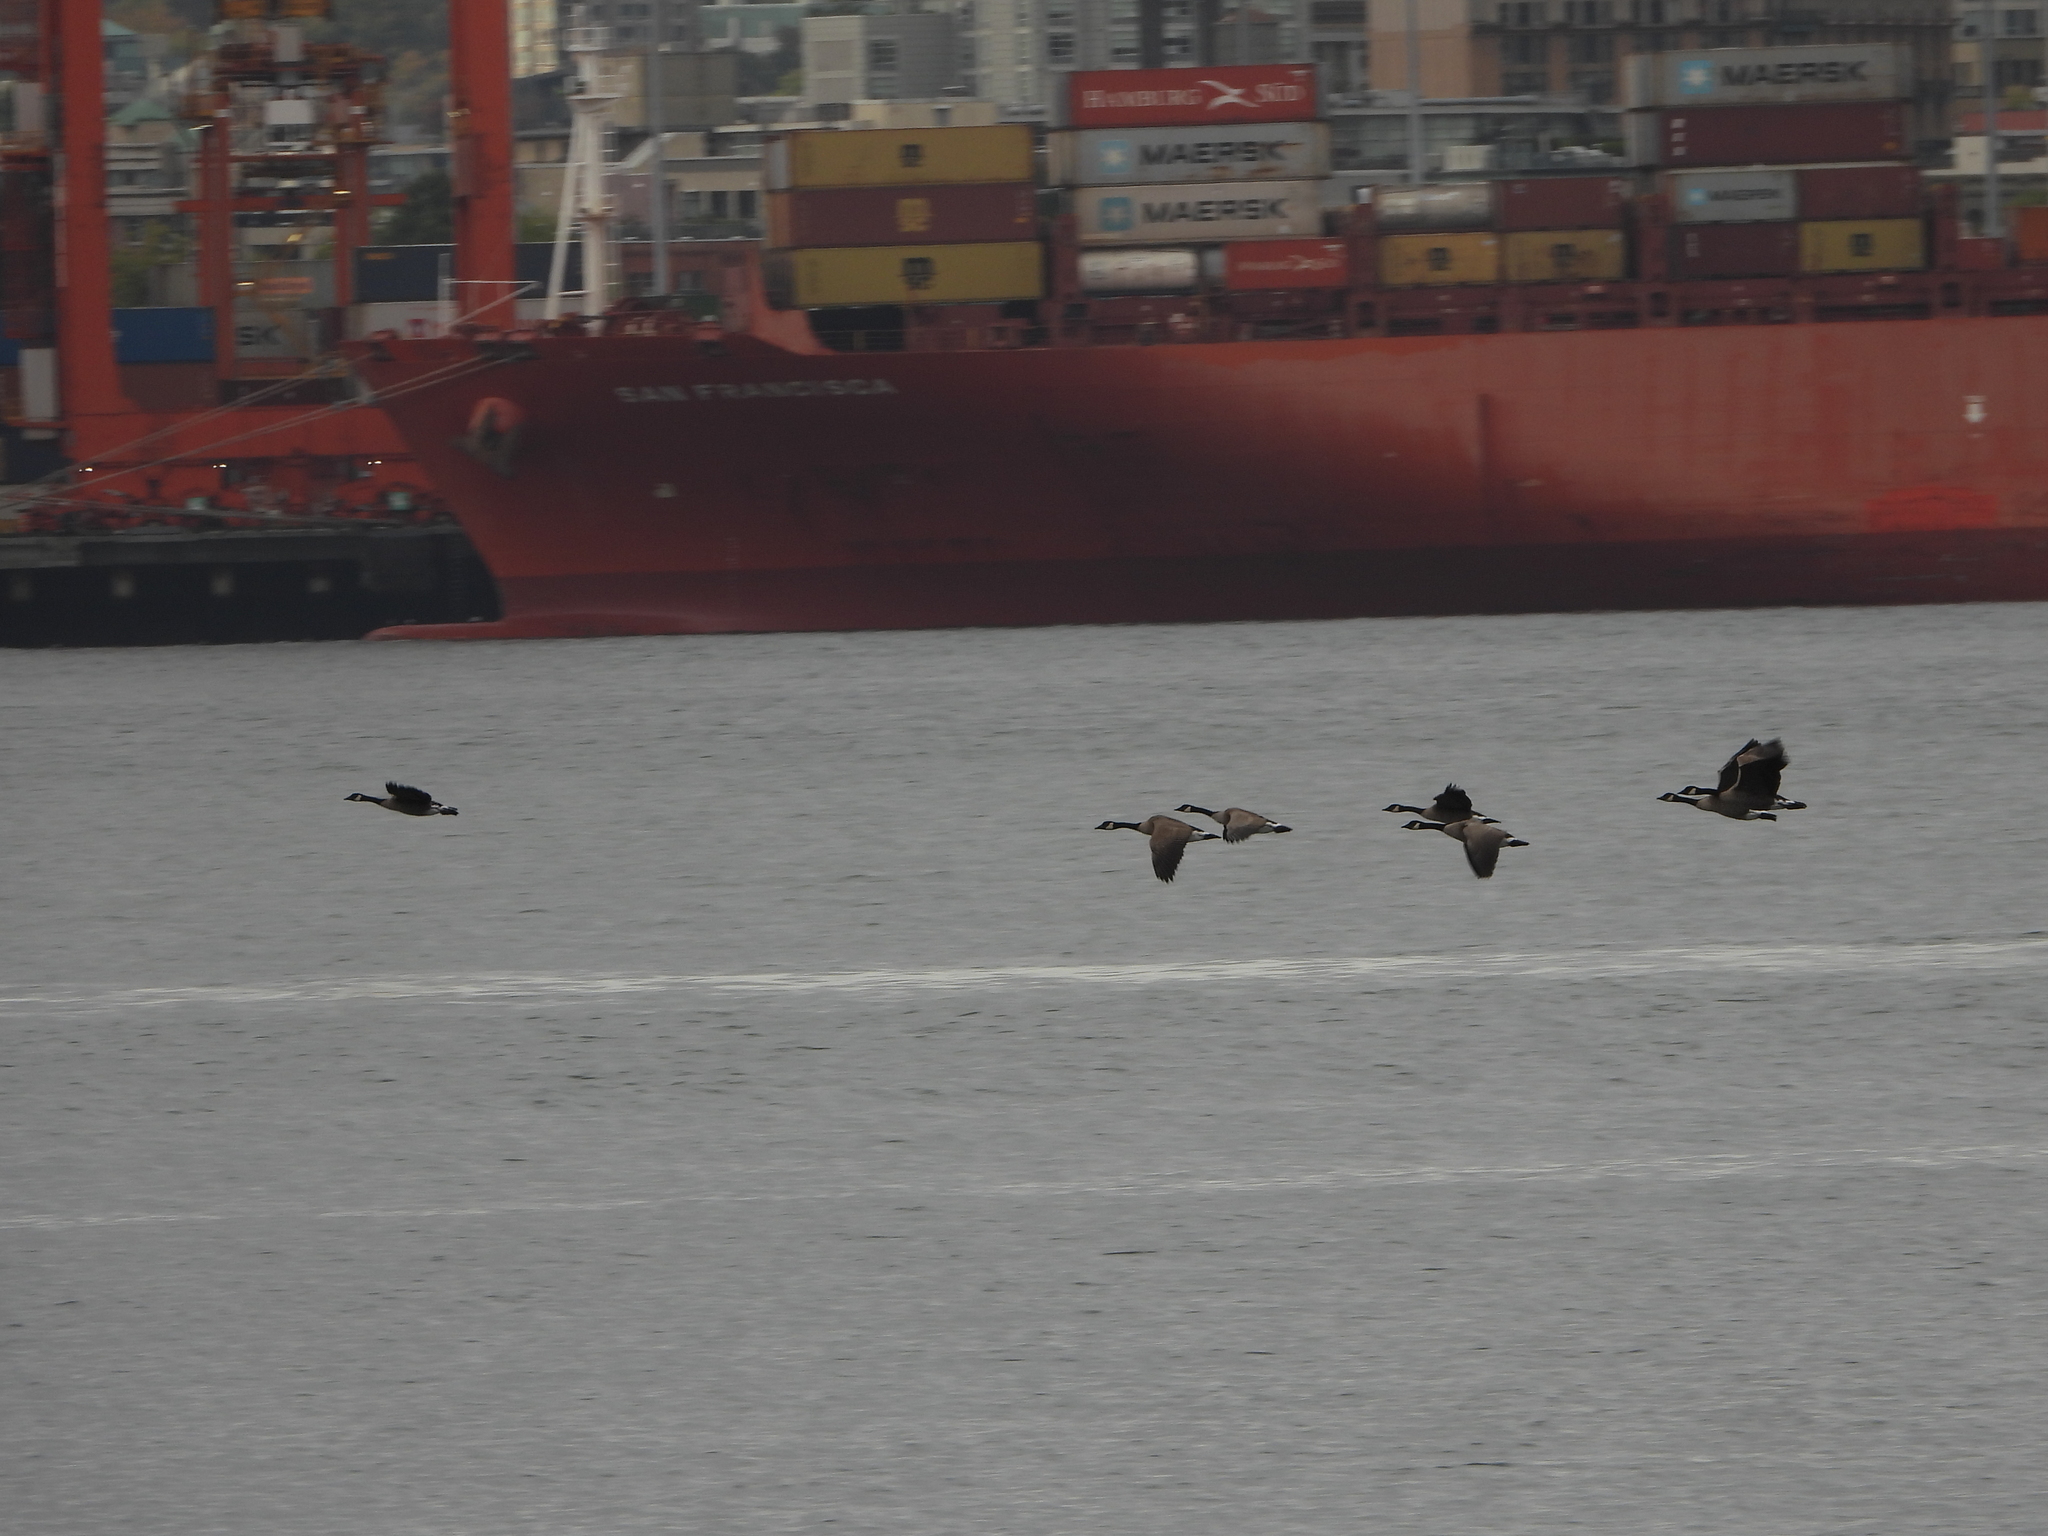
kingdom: Animalia
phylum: Chordata
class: Aves
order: Anseriformes
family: Anatidae
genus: Branta
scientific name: Branta canadensis
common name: Canada goose
